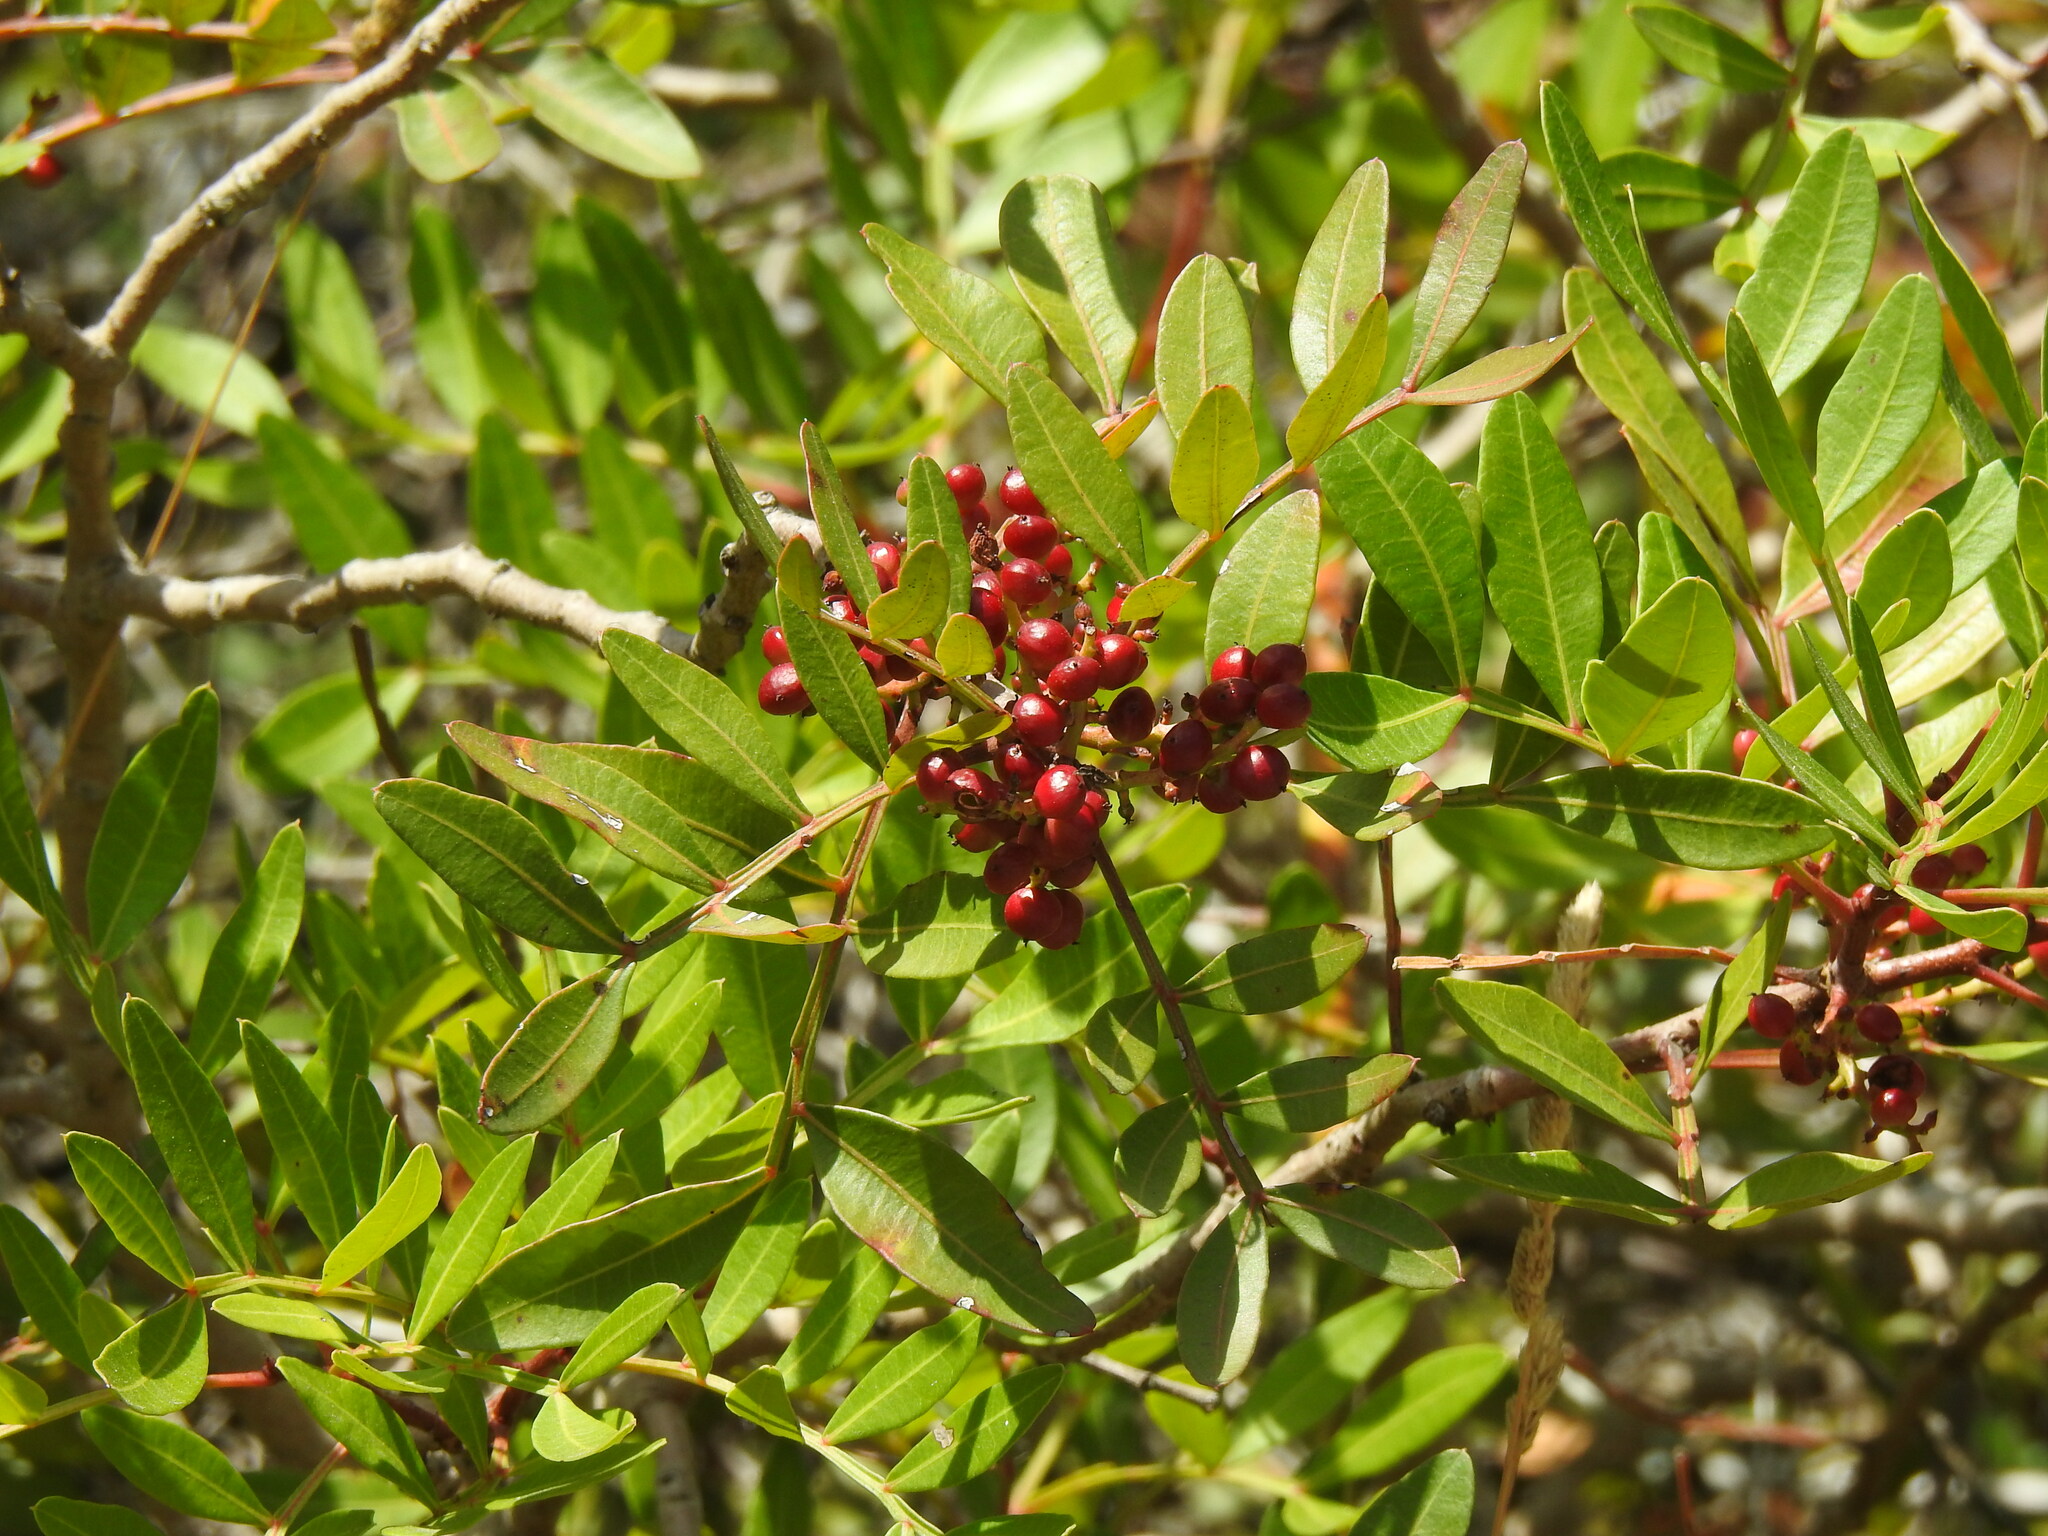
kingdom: Plantae
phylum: Tracheophyta
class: Magnoliopsida
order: Sapindales
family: Anacardiaceae
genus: Pistacia
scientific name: Pistacia lentiscus
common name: Lentisk
